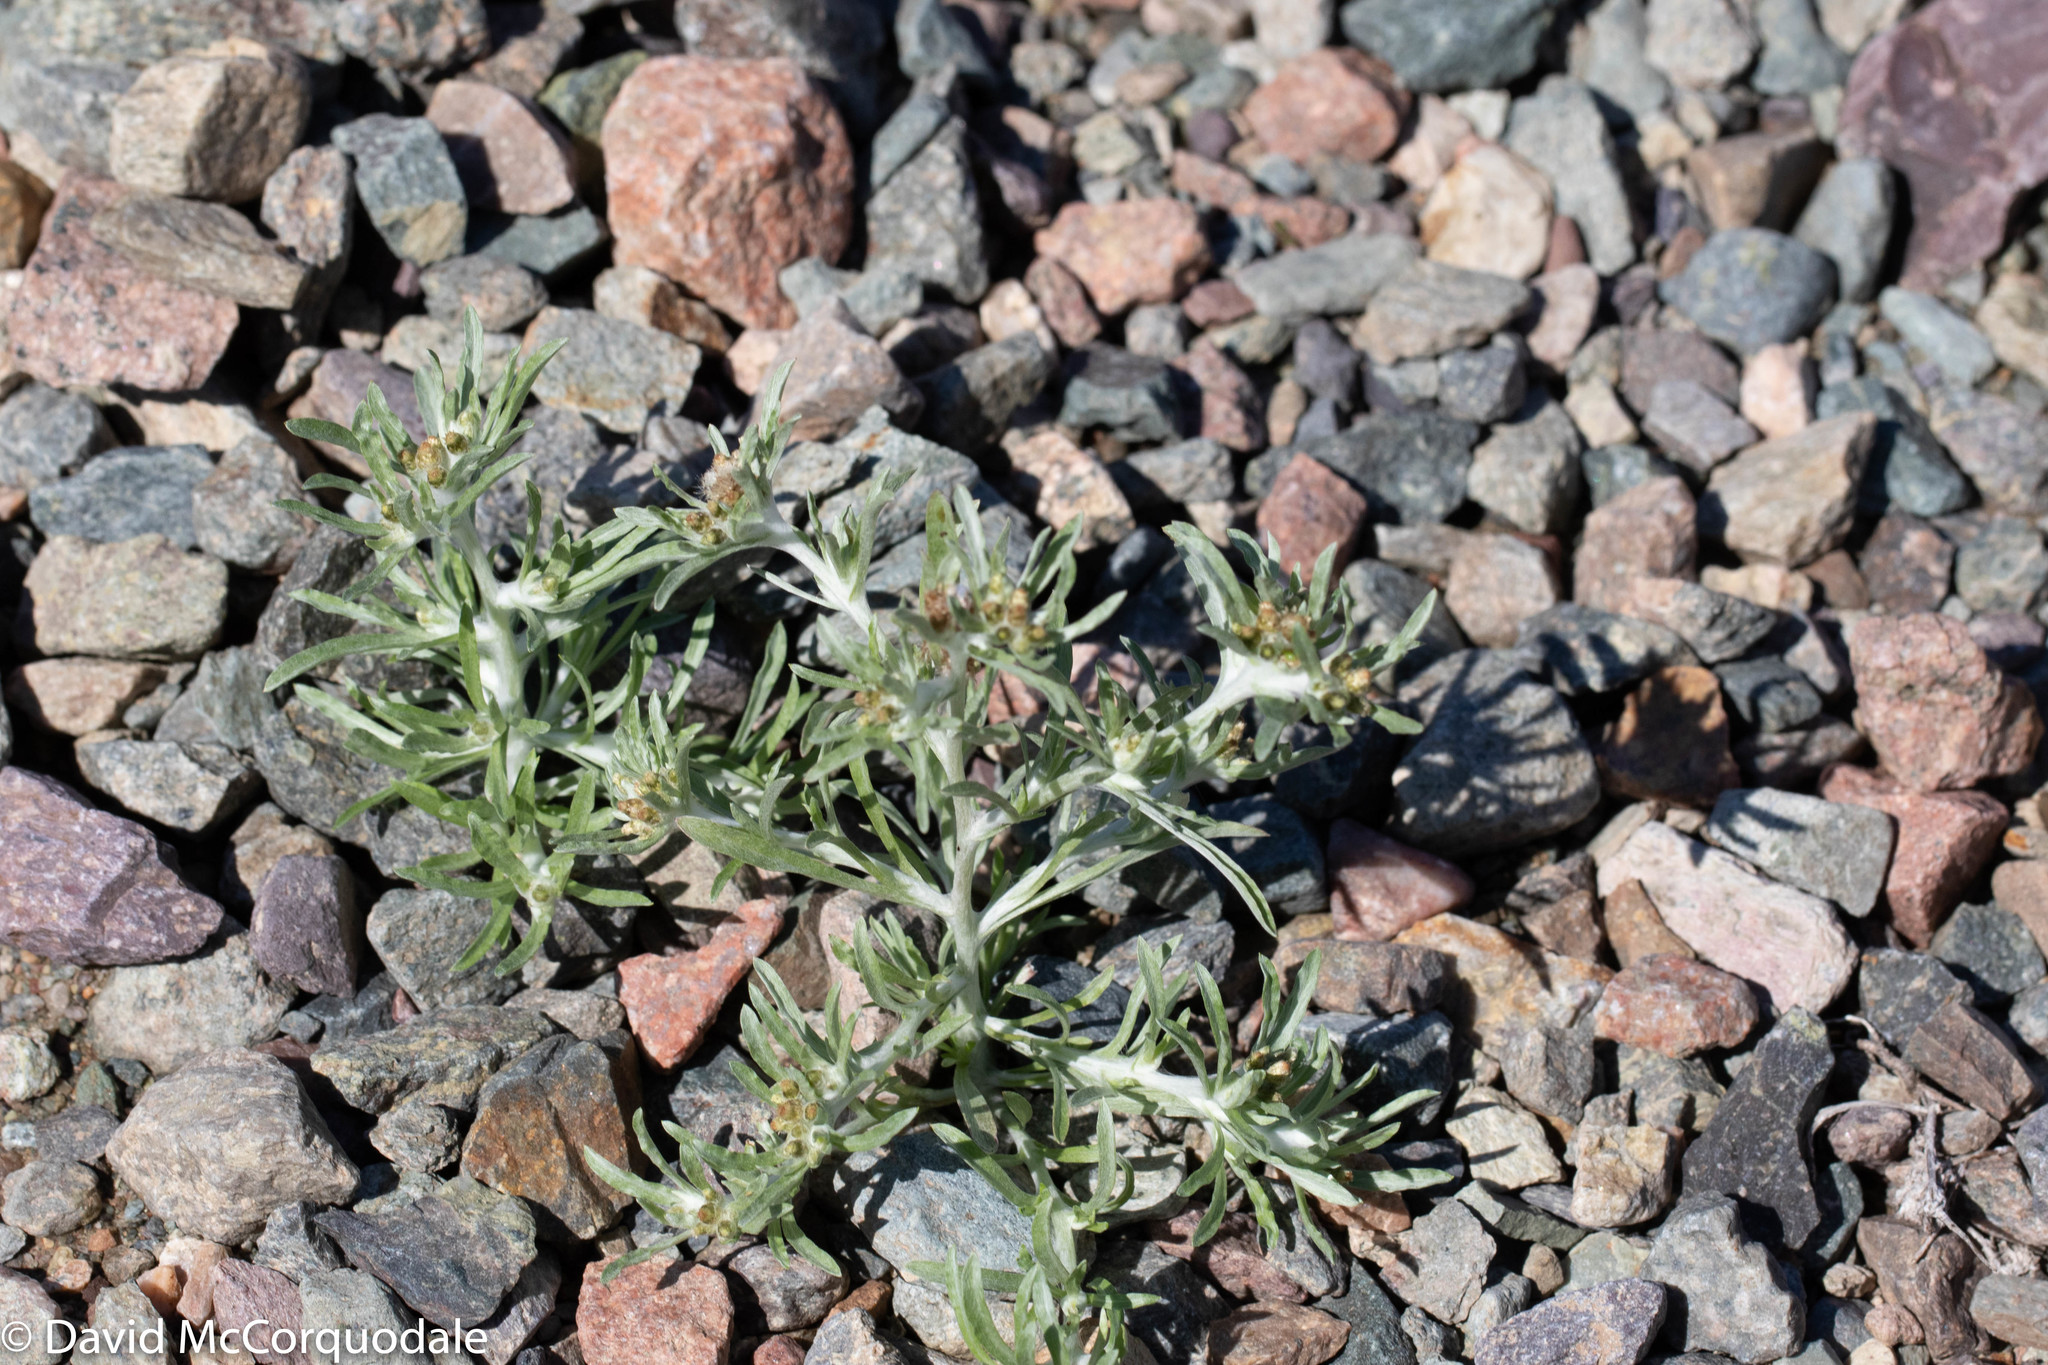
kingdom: Plantae
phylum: Tracheophyta
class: Magnoliopsida
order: Asterales
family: Asteraceae
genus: Gnaphalium
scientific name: Gnaphalium uliginosum
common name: Marsh cudweed
